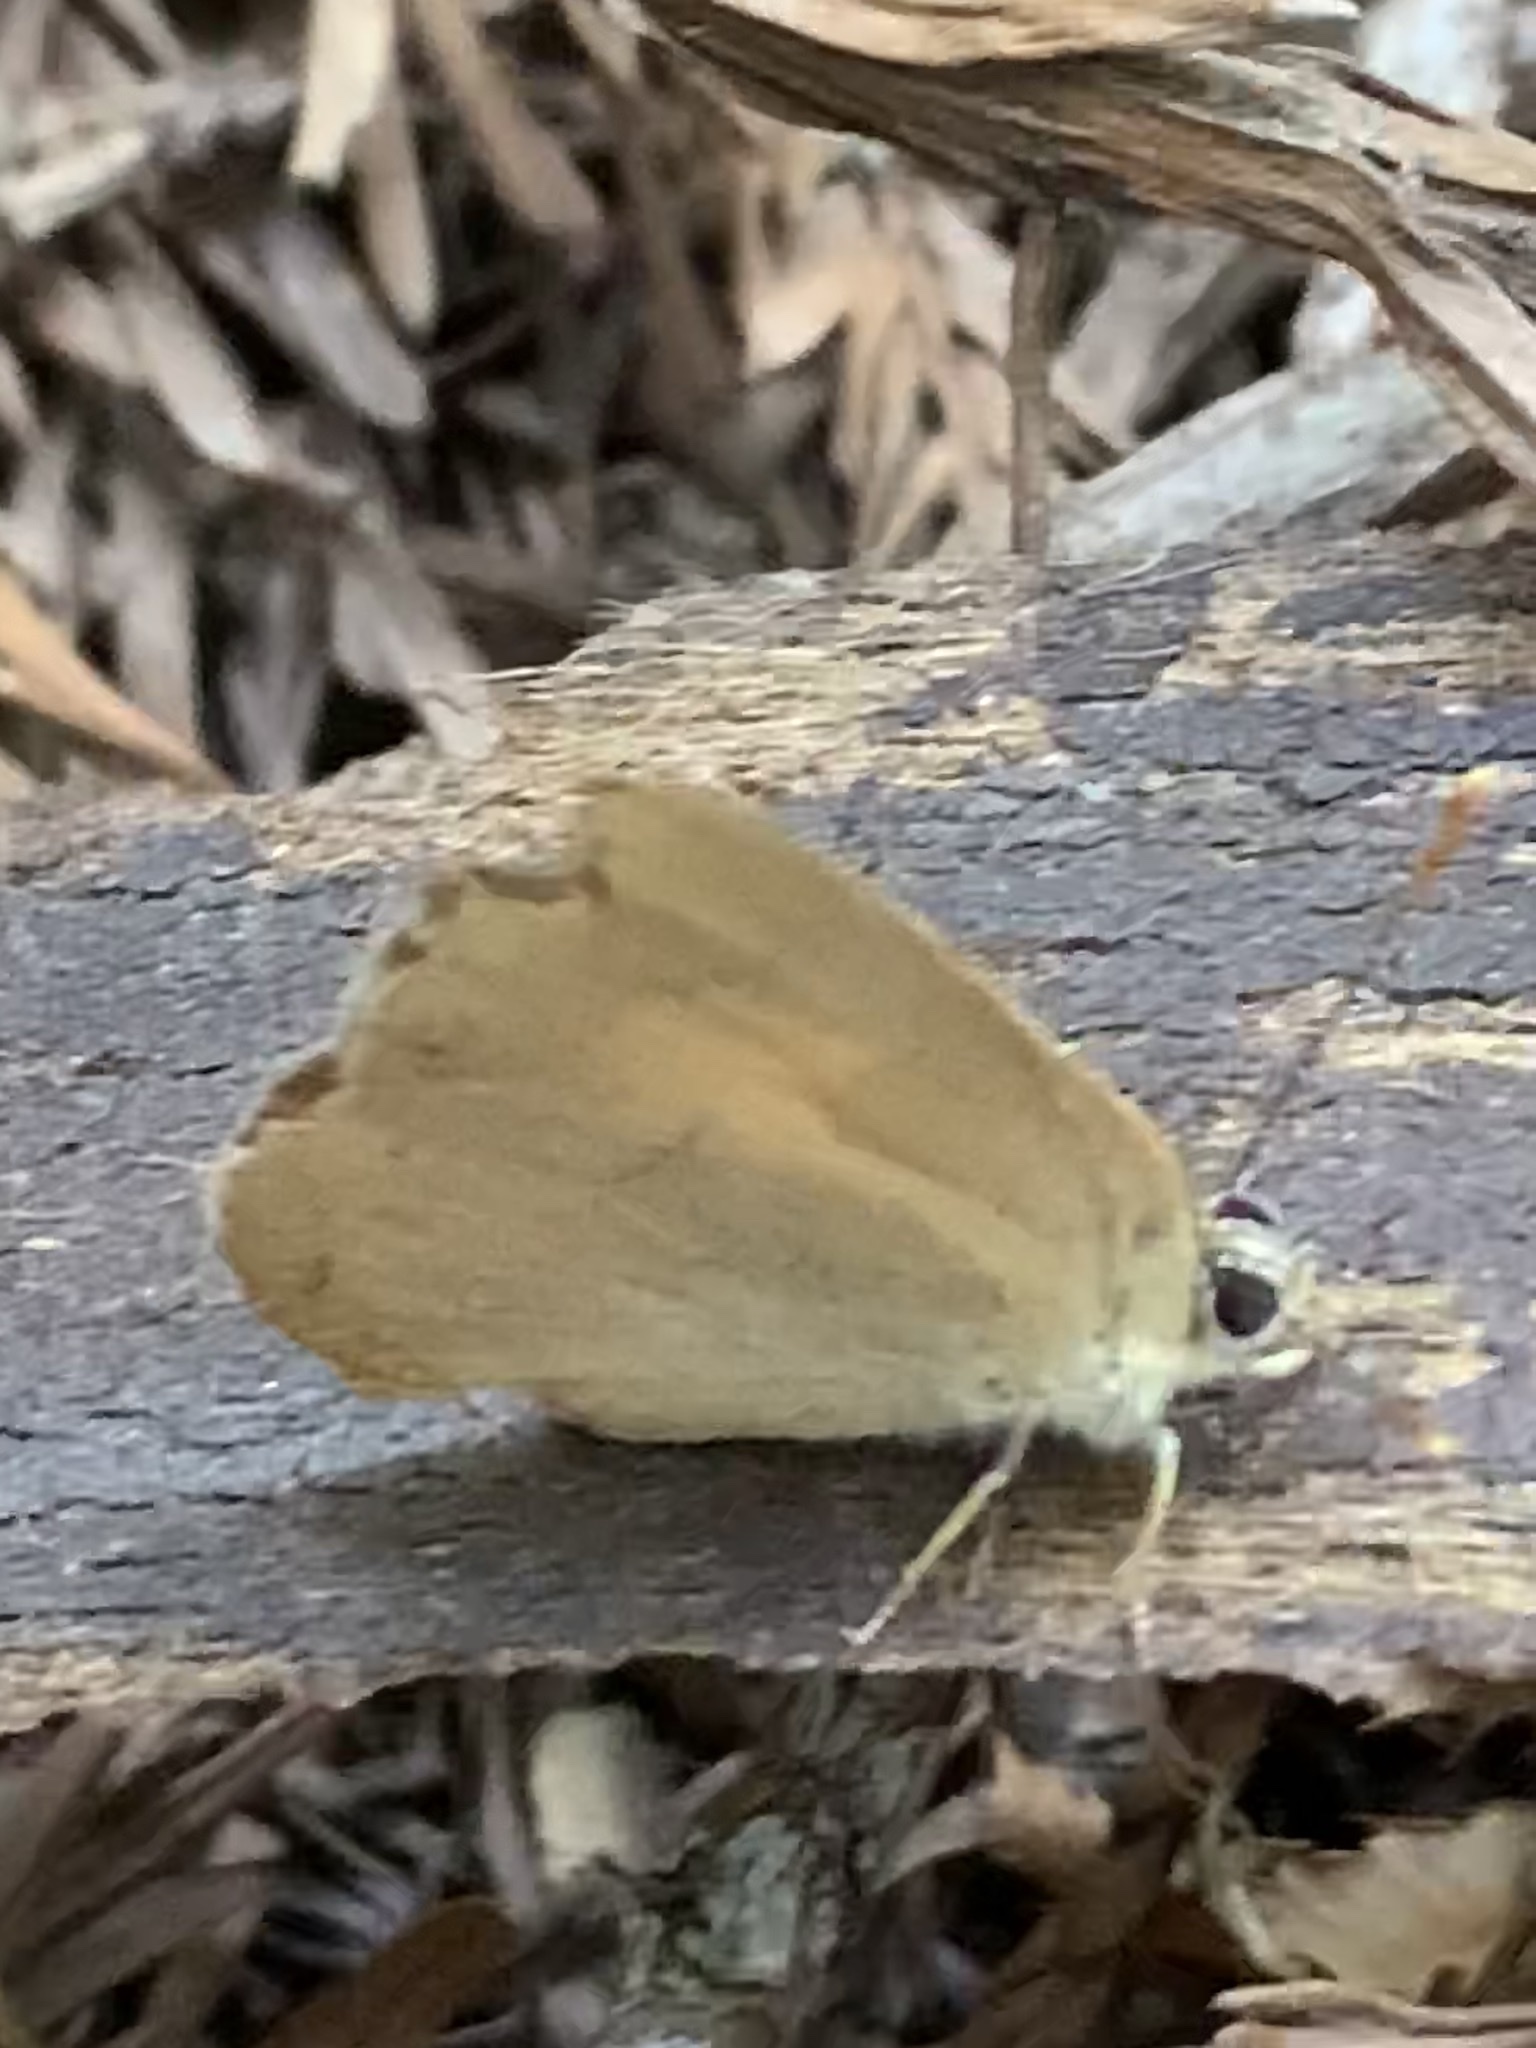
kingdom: Animalia
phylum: Arthropoda
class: Insecta
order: Lepidoptera
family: Lycaenidae
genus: Habrodais
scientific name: Habrodais grunus
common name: Golden hairstreak
